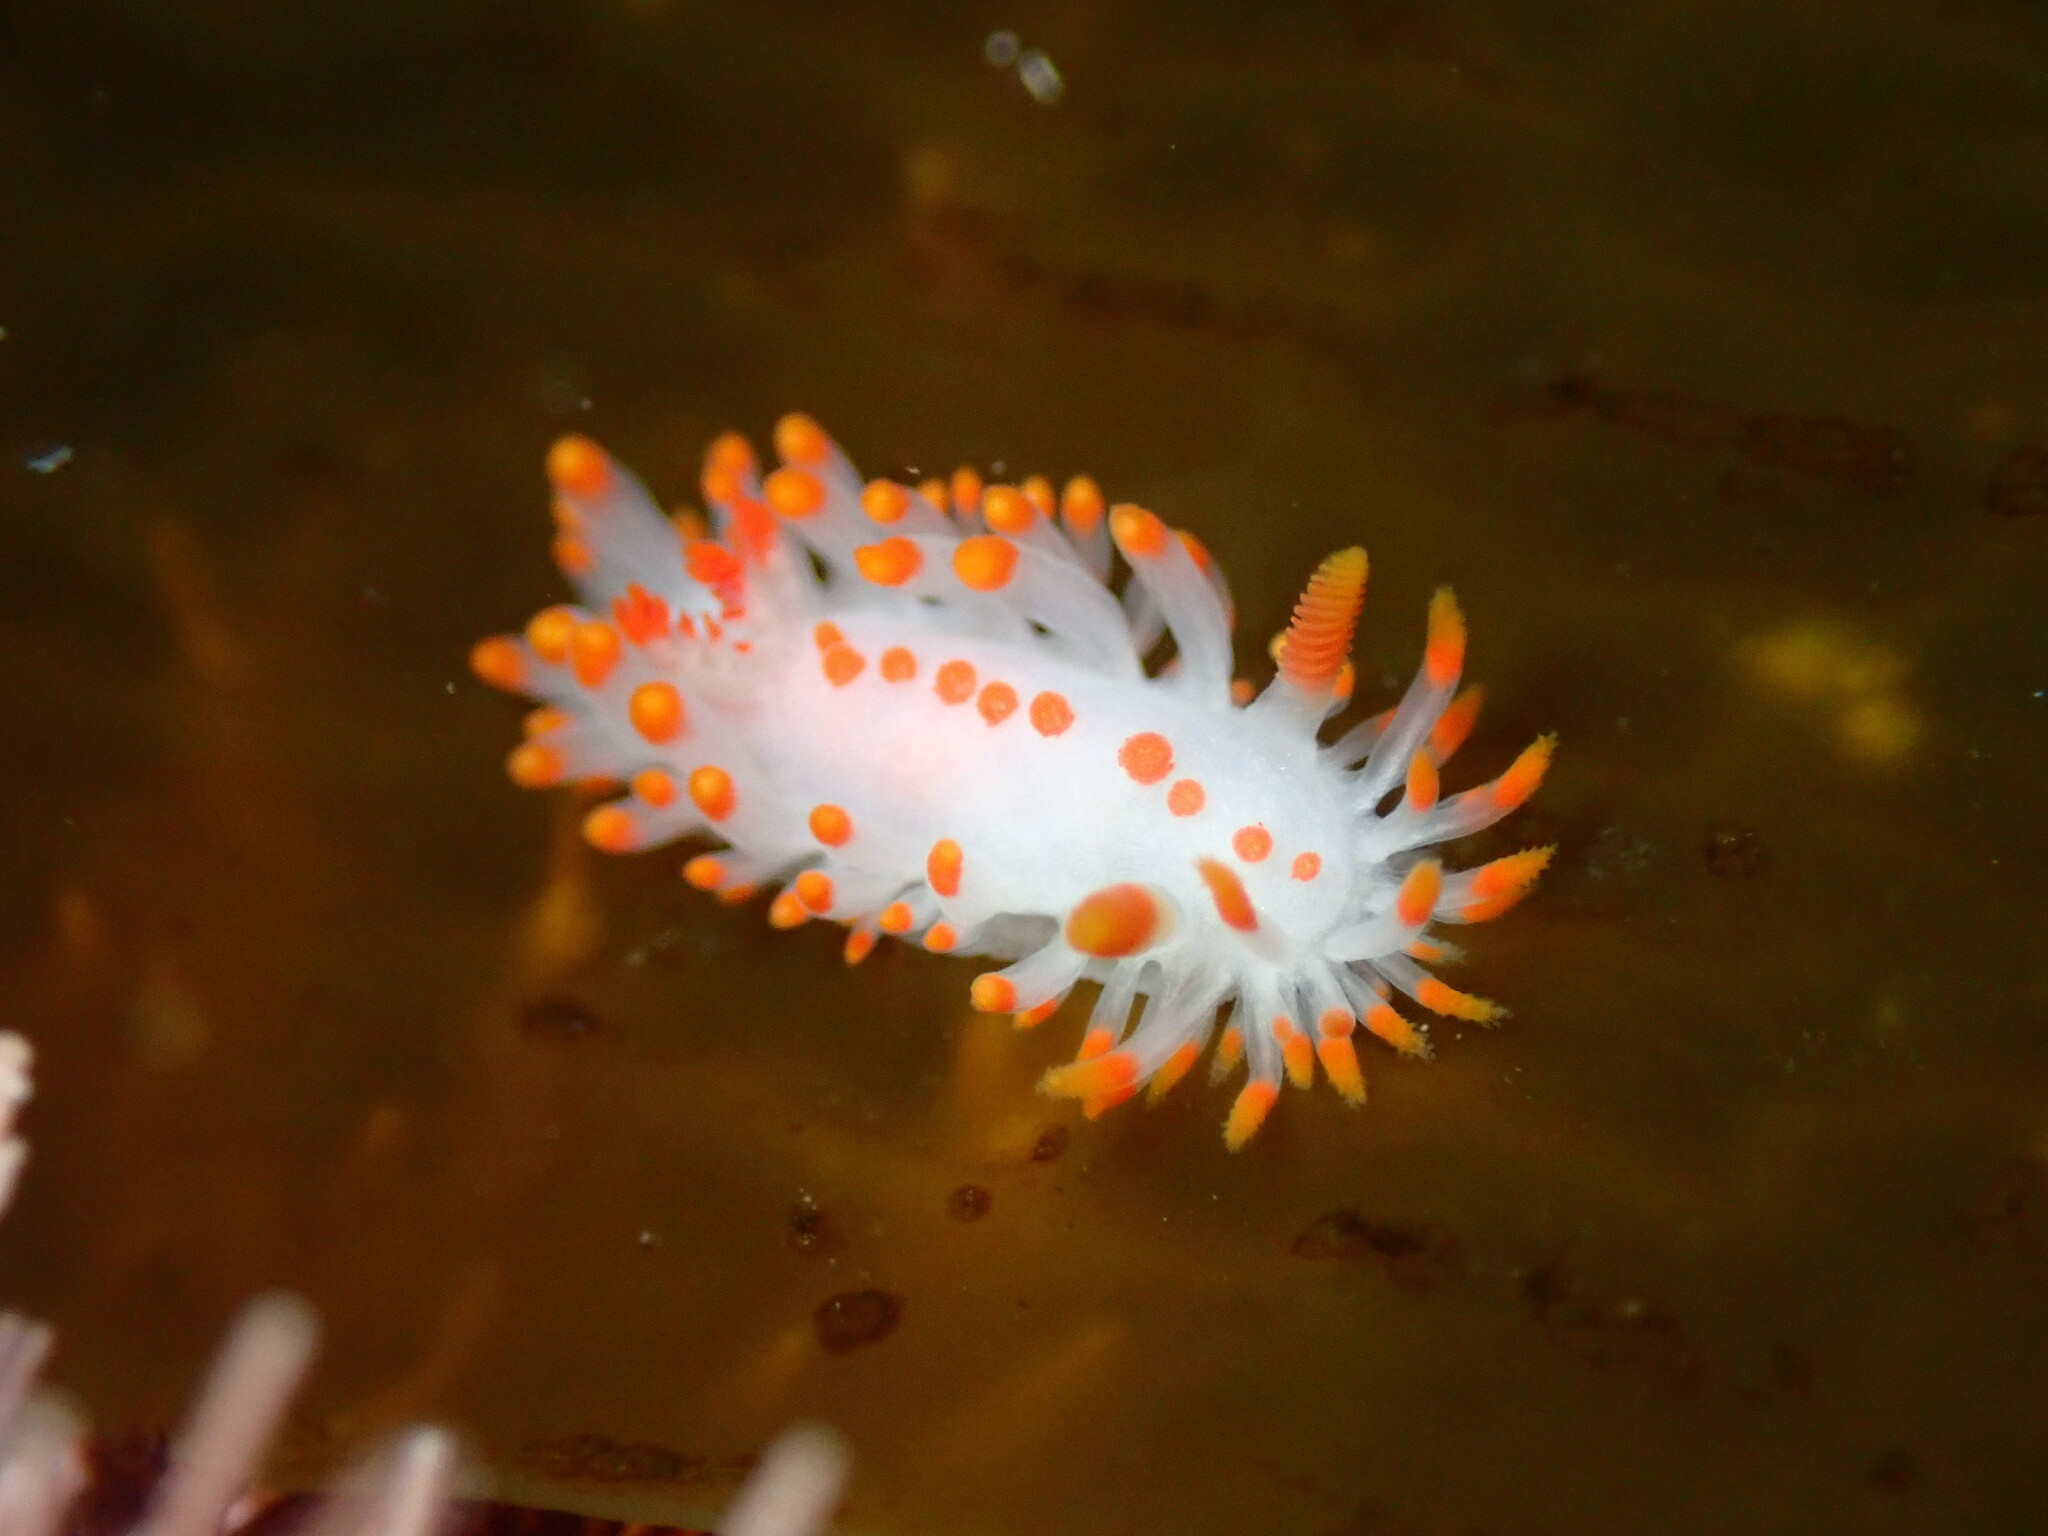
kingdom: Animalia
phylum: Mollusca
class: Gastropoda
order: Nudibranchia
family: Polyceridae
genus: Limacia
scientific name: Limacia mcdonaldi
